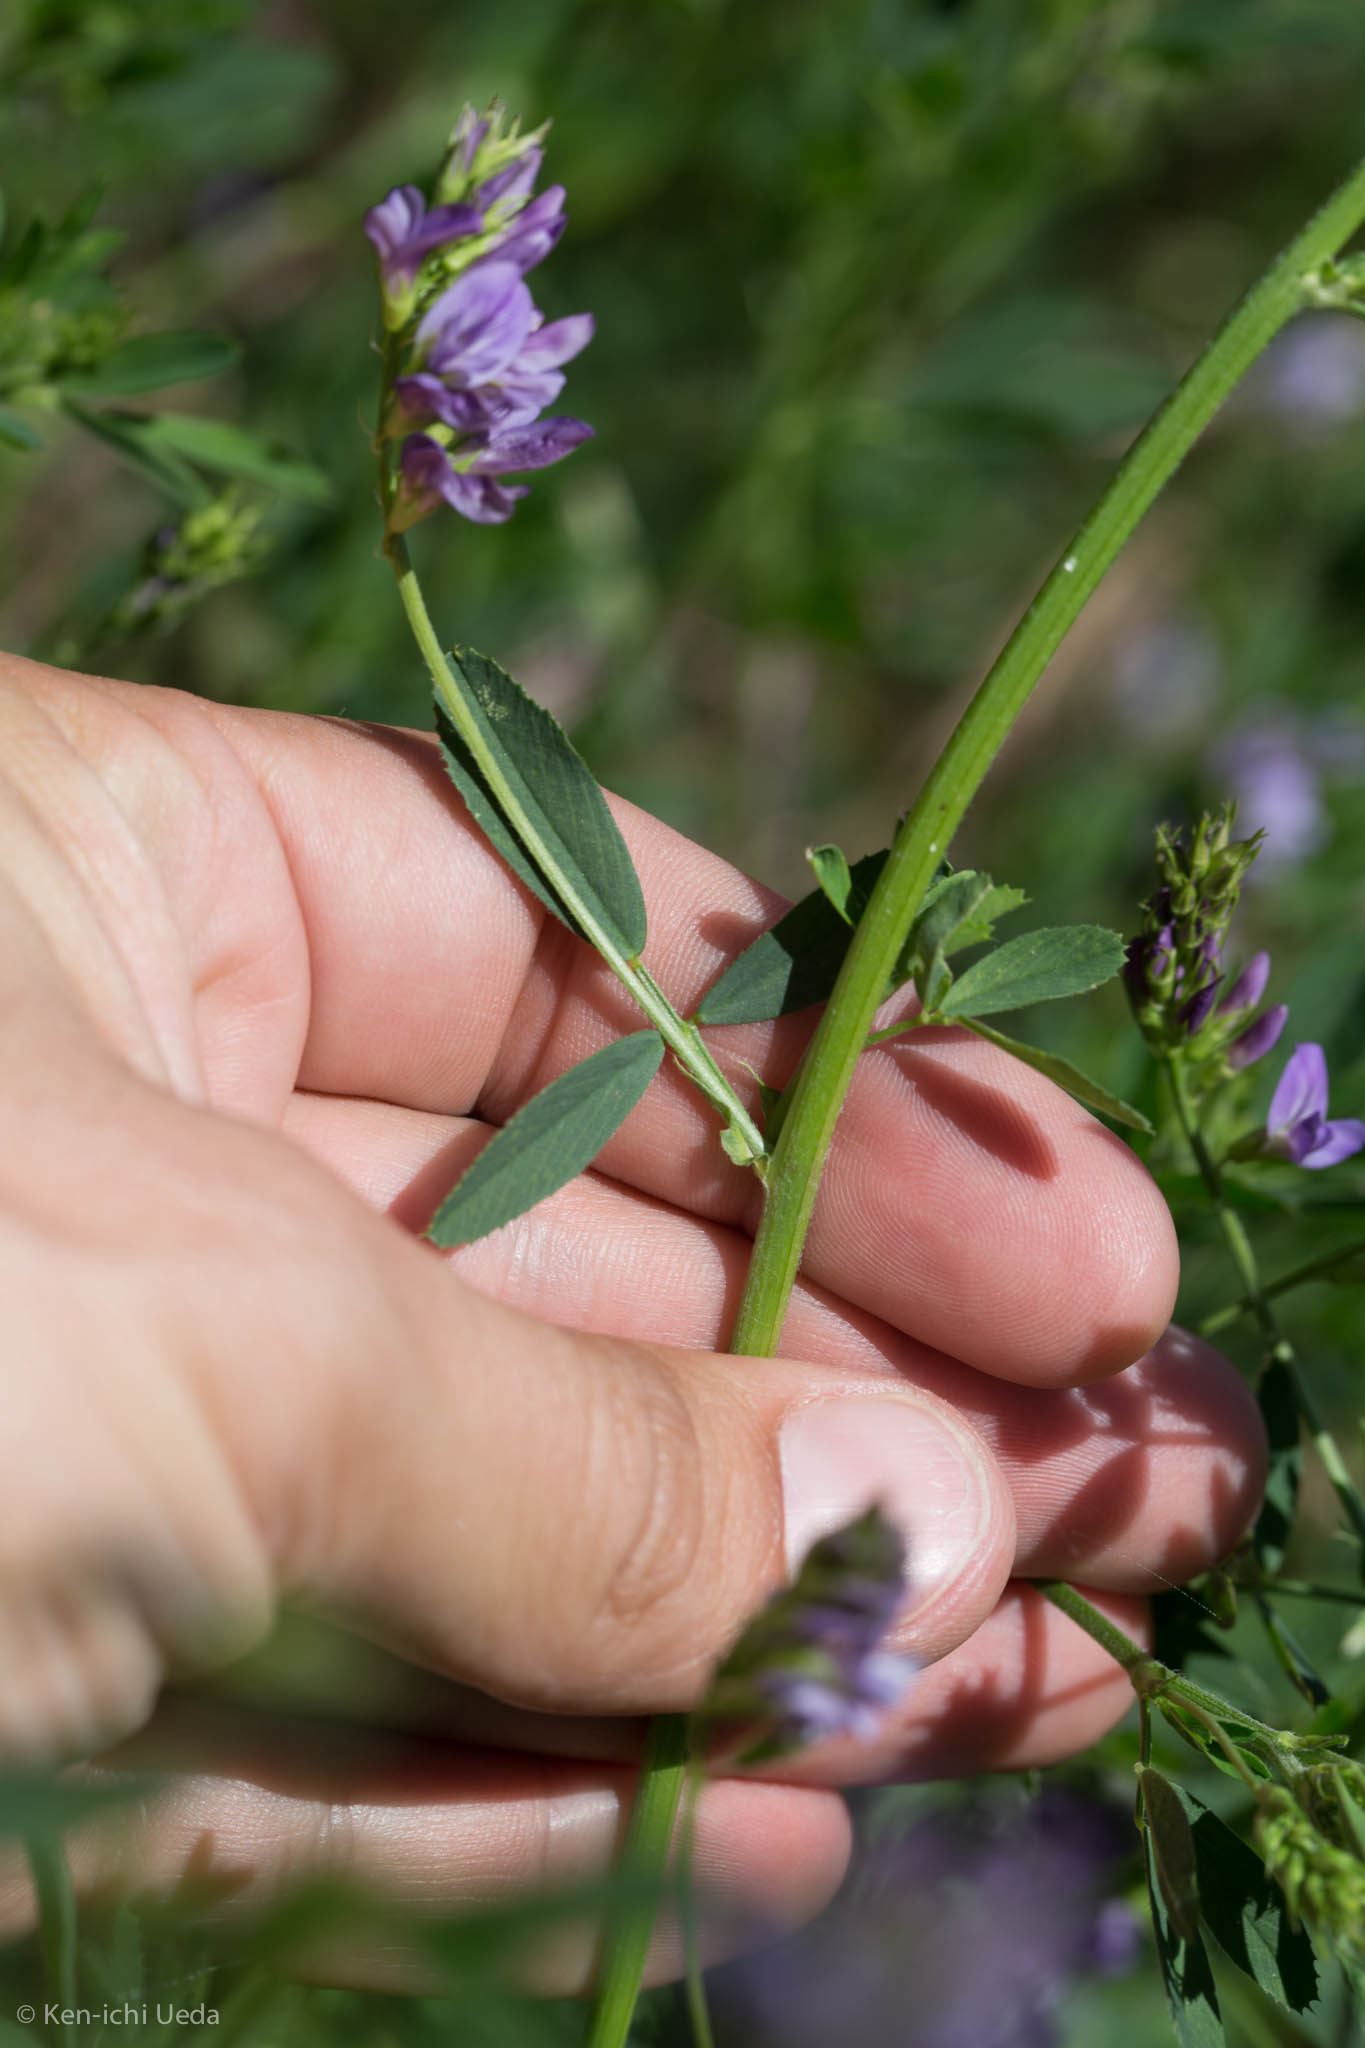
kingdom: Plantae
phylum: Tracheophyta
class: Magnoliopsida
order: Fabales
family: Fabaceae
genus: Medicago
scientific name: Medicago sativa
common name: Alfalfa
